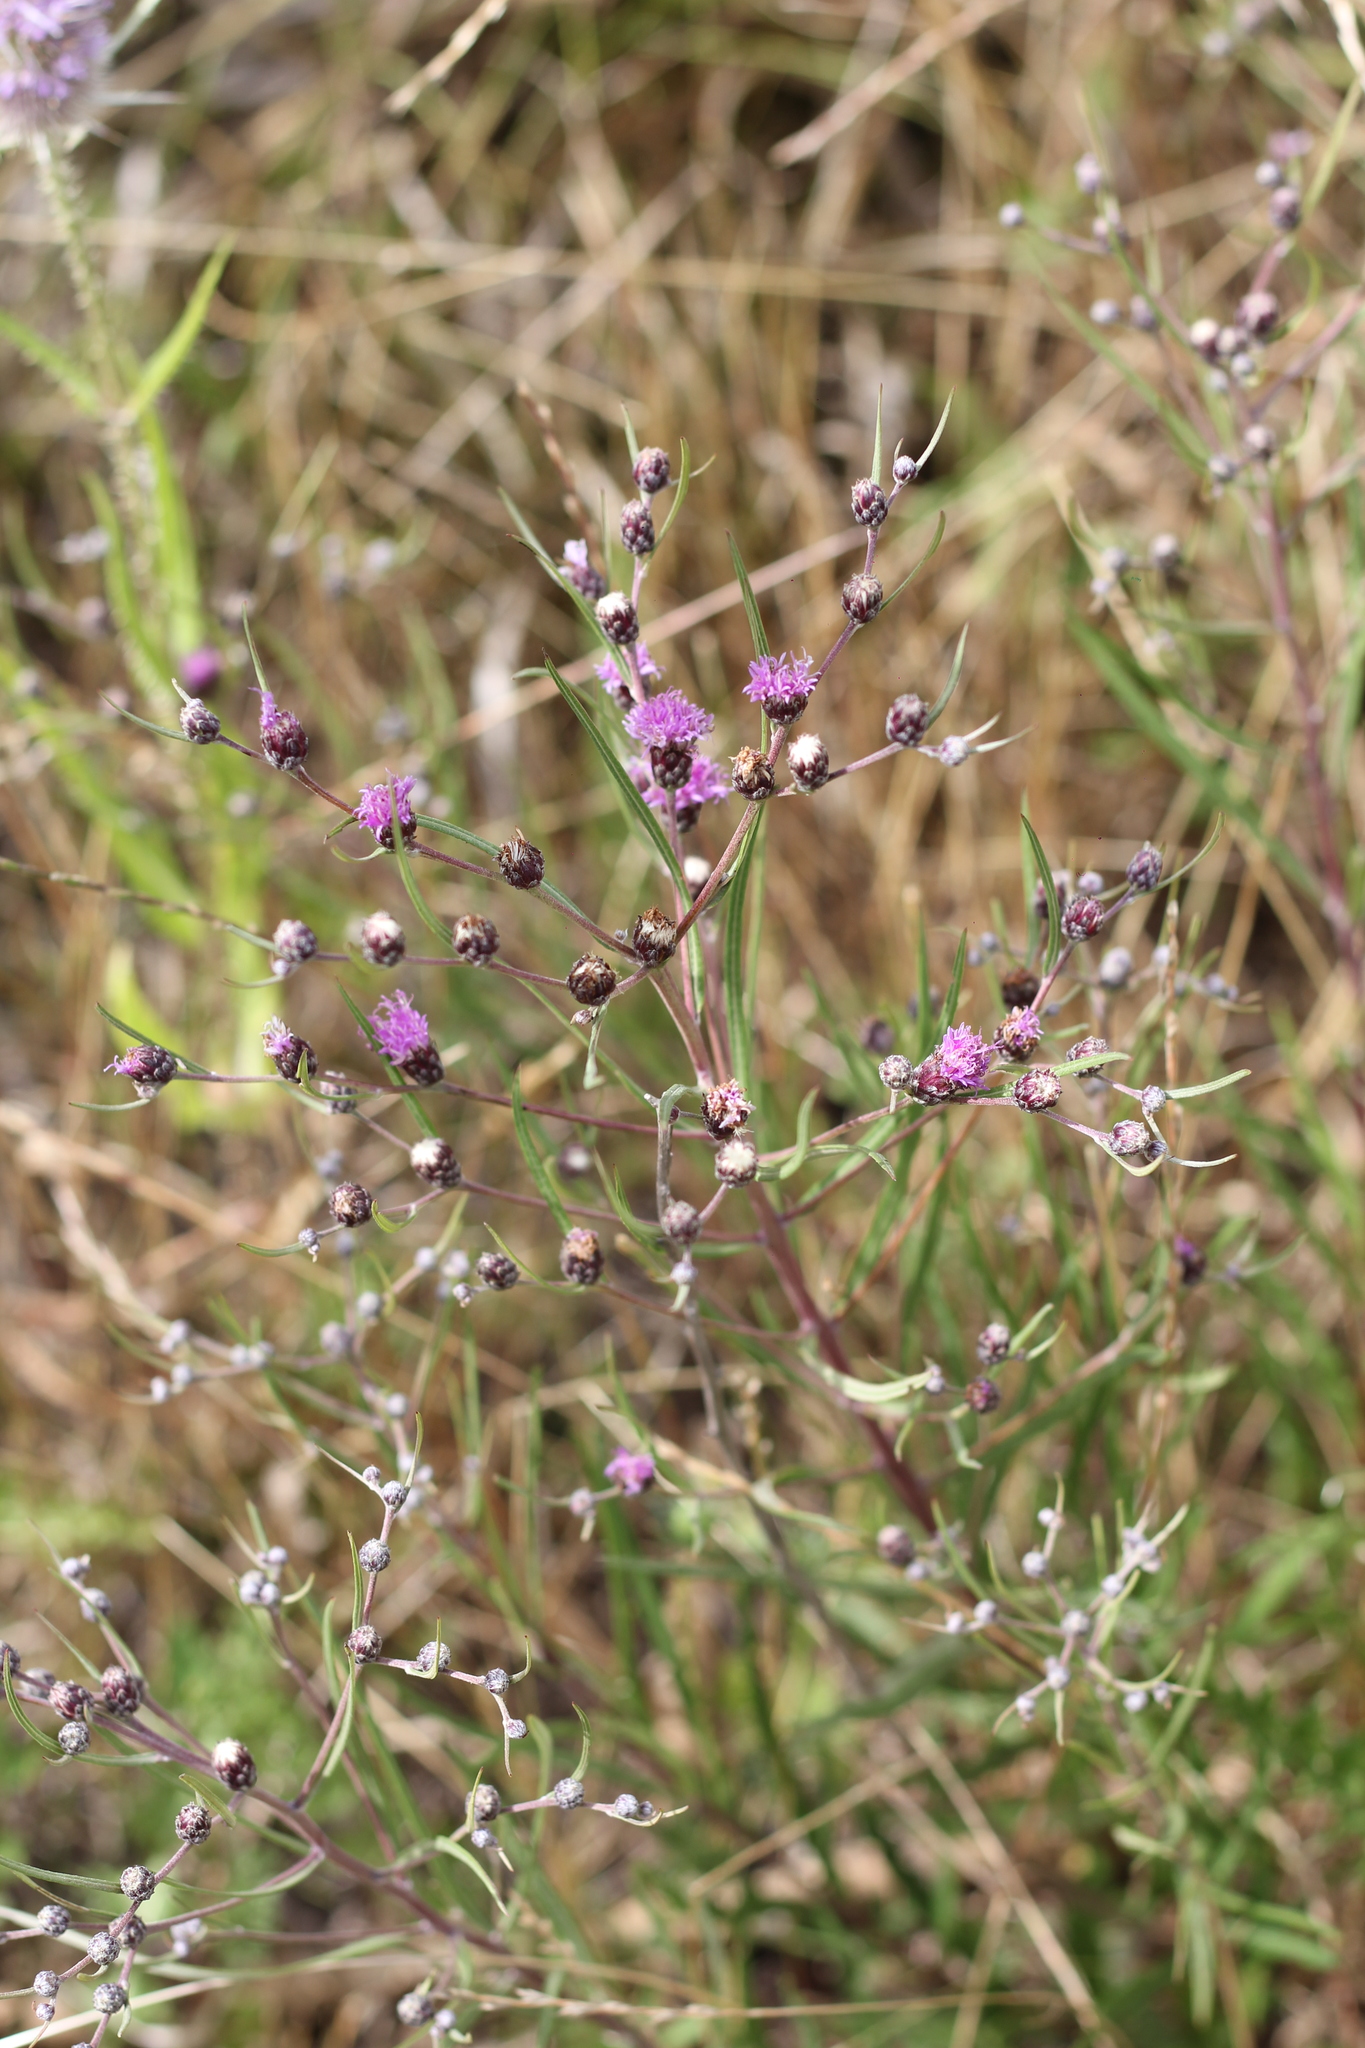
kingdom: Plantae
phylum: Tracheophyta
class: Magnoliopsida
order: Asterales
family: Asteraceae
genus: Lessingianthus
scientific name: Lessingianthus rubricaulis
